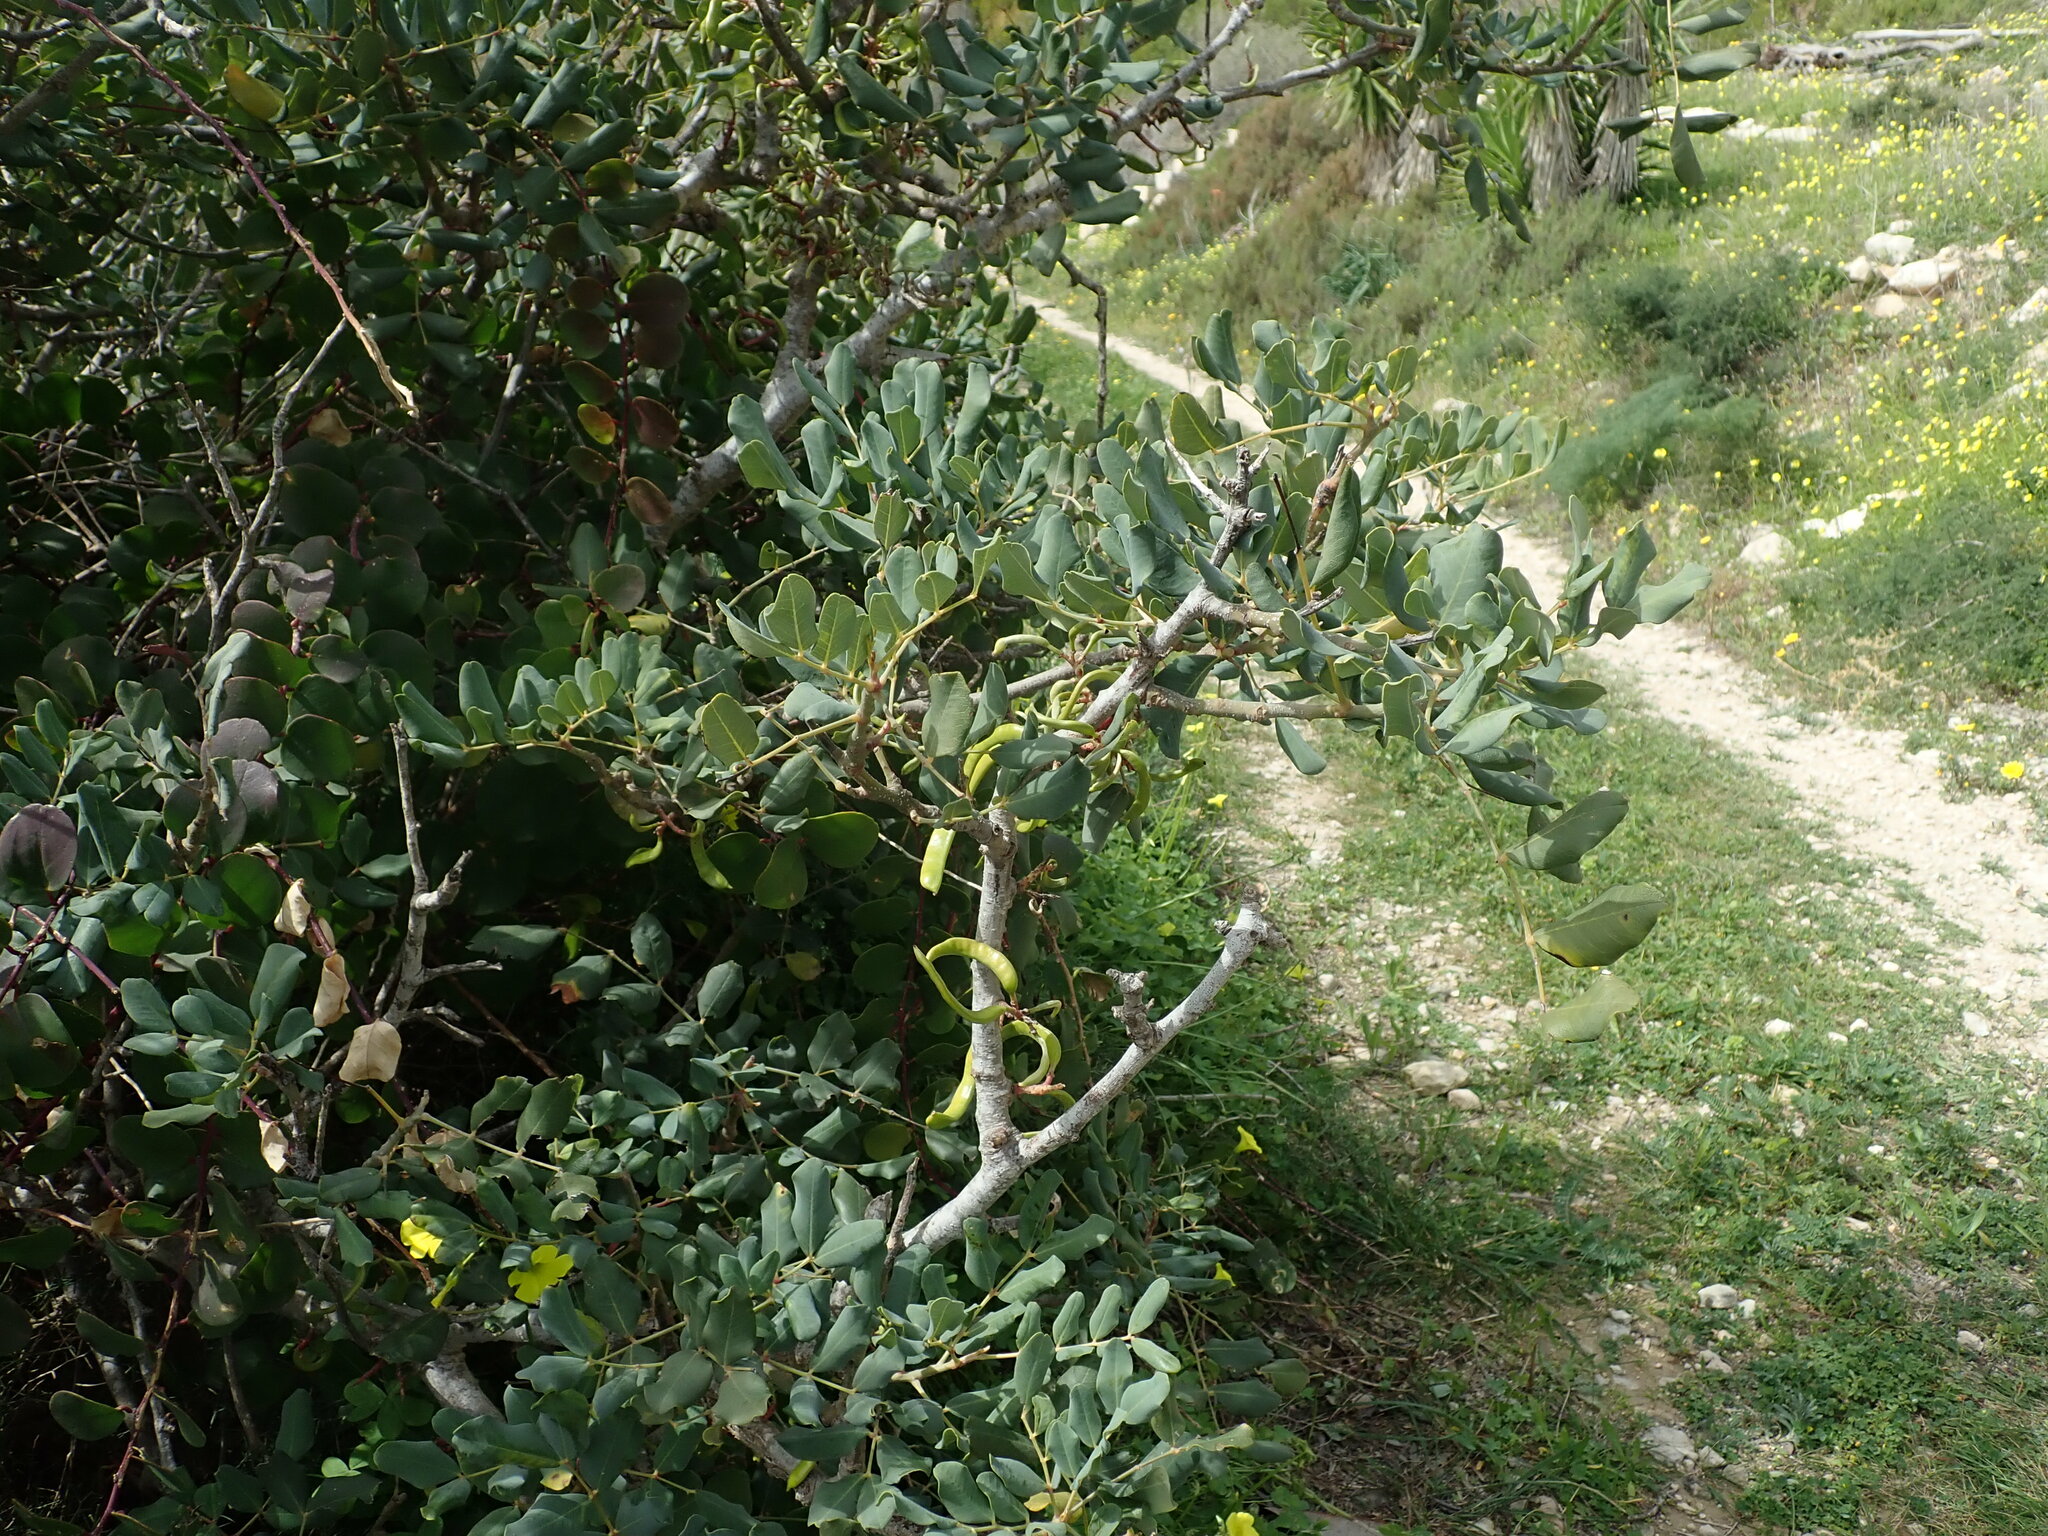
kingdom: Plantae
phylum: Tracheophyta
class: Magnoliopsida
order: Fabales
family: Fabaceae
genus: Ceratonia
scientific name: Ceratonia siliqua
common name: Carob
